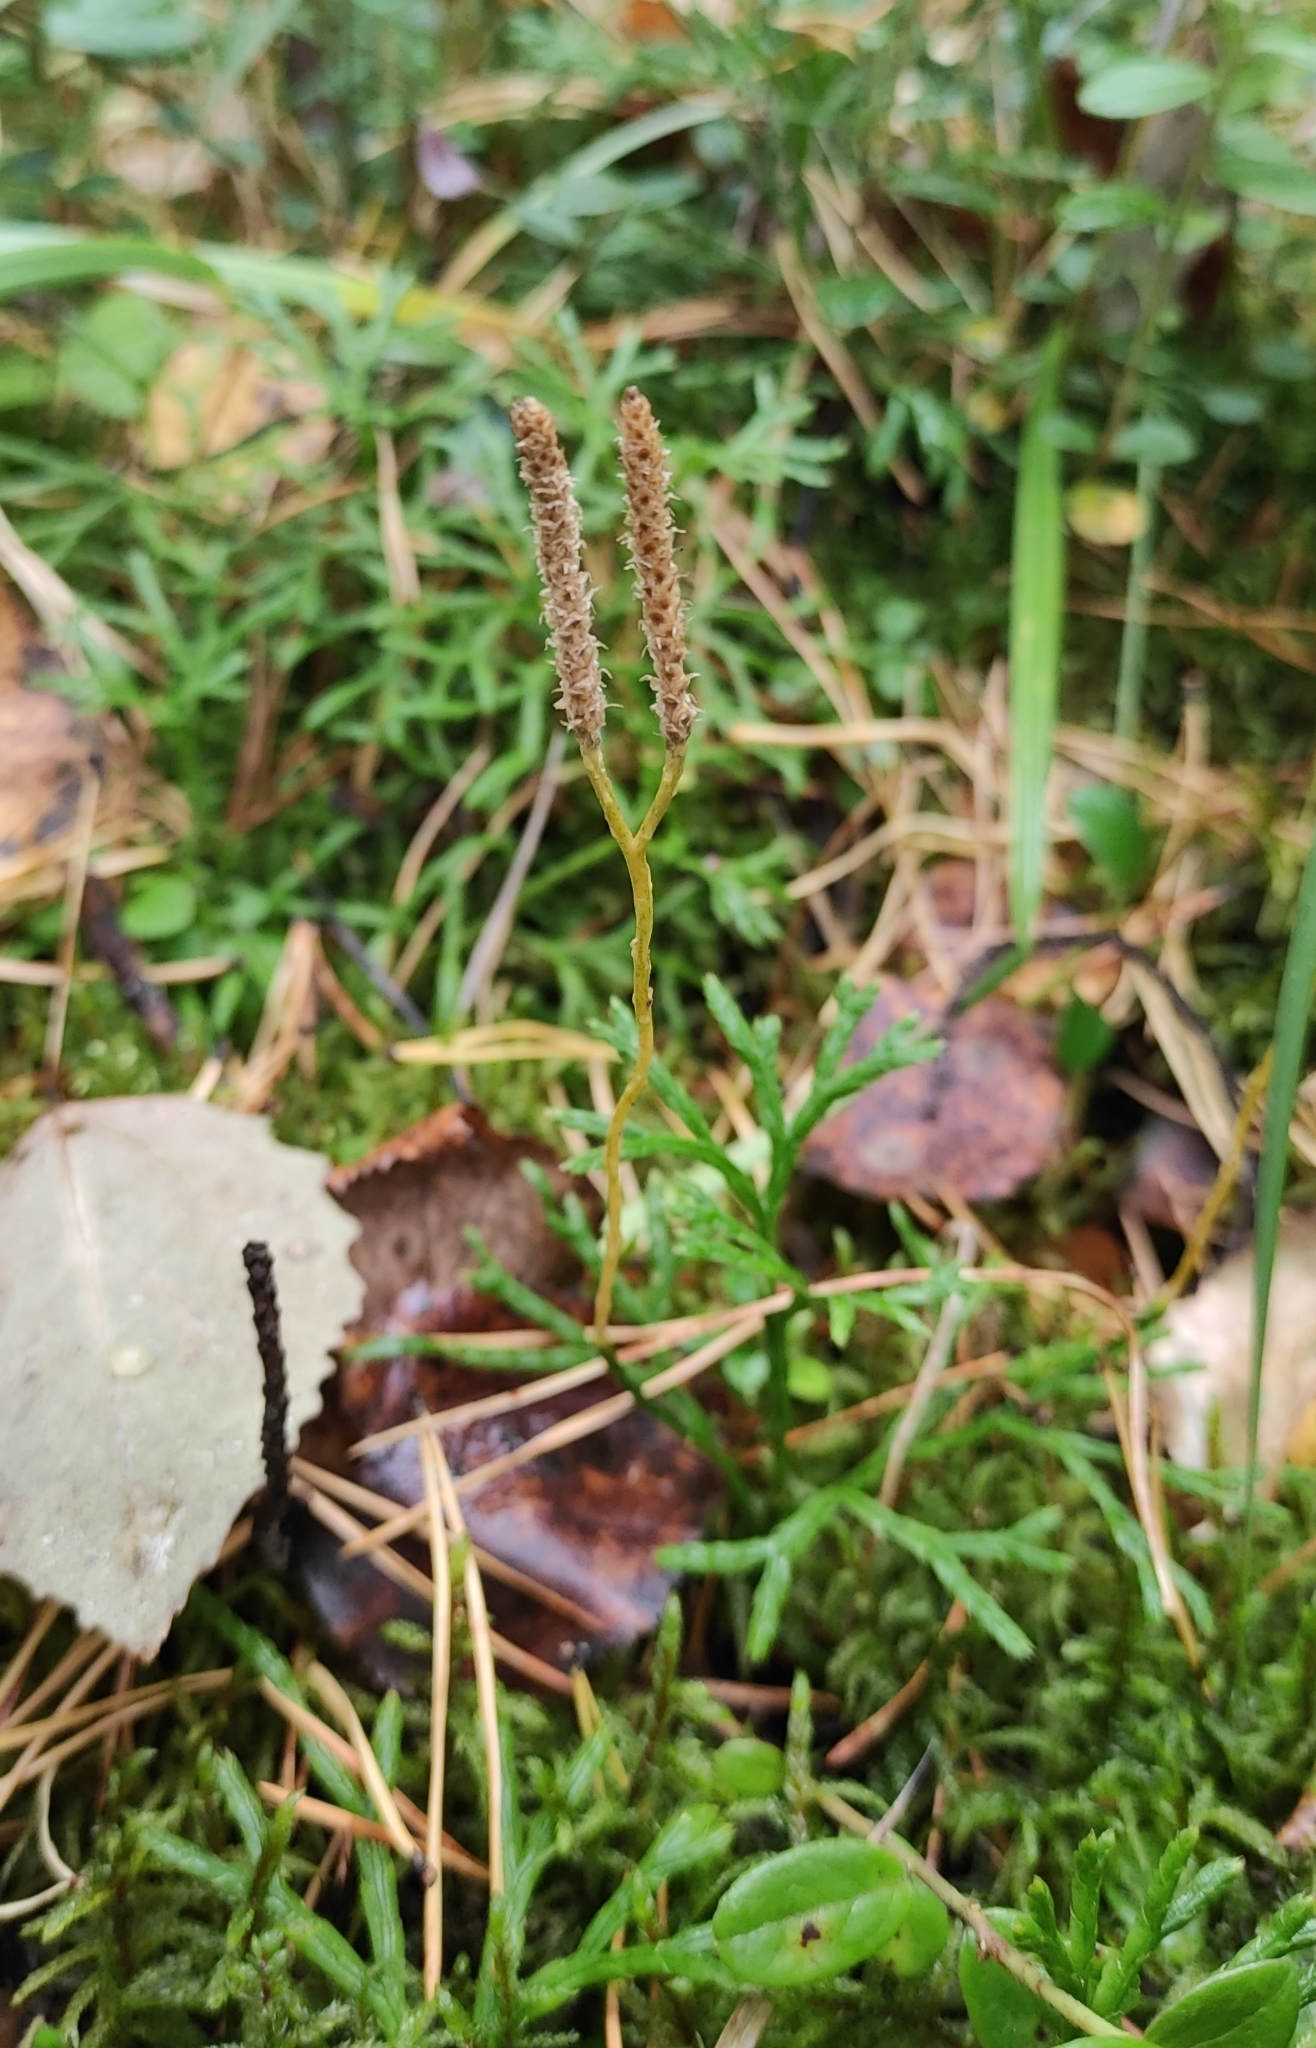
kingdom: Plantae
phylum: Tracheophyta
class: Lycopodiopsida
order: Lycopodiales
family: Lycopodiaceae
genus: Diphasiastrum
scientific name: Diphasiastrum complanatum
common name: Northern running-pine
